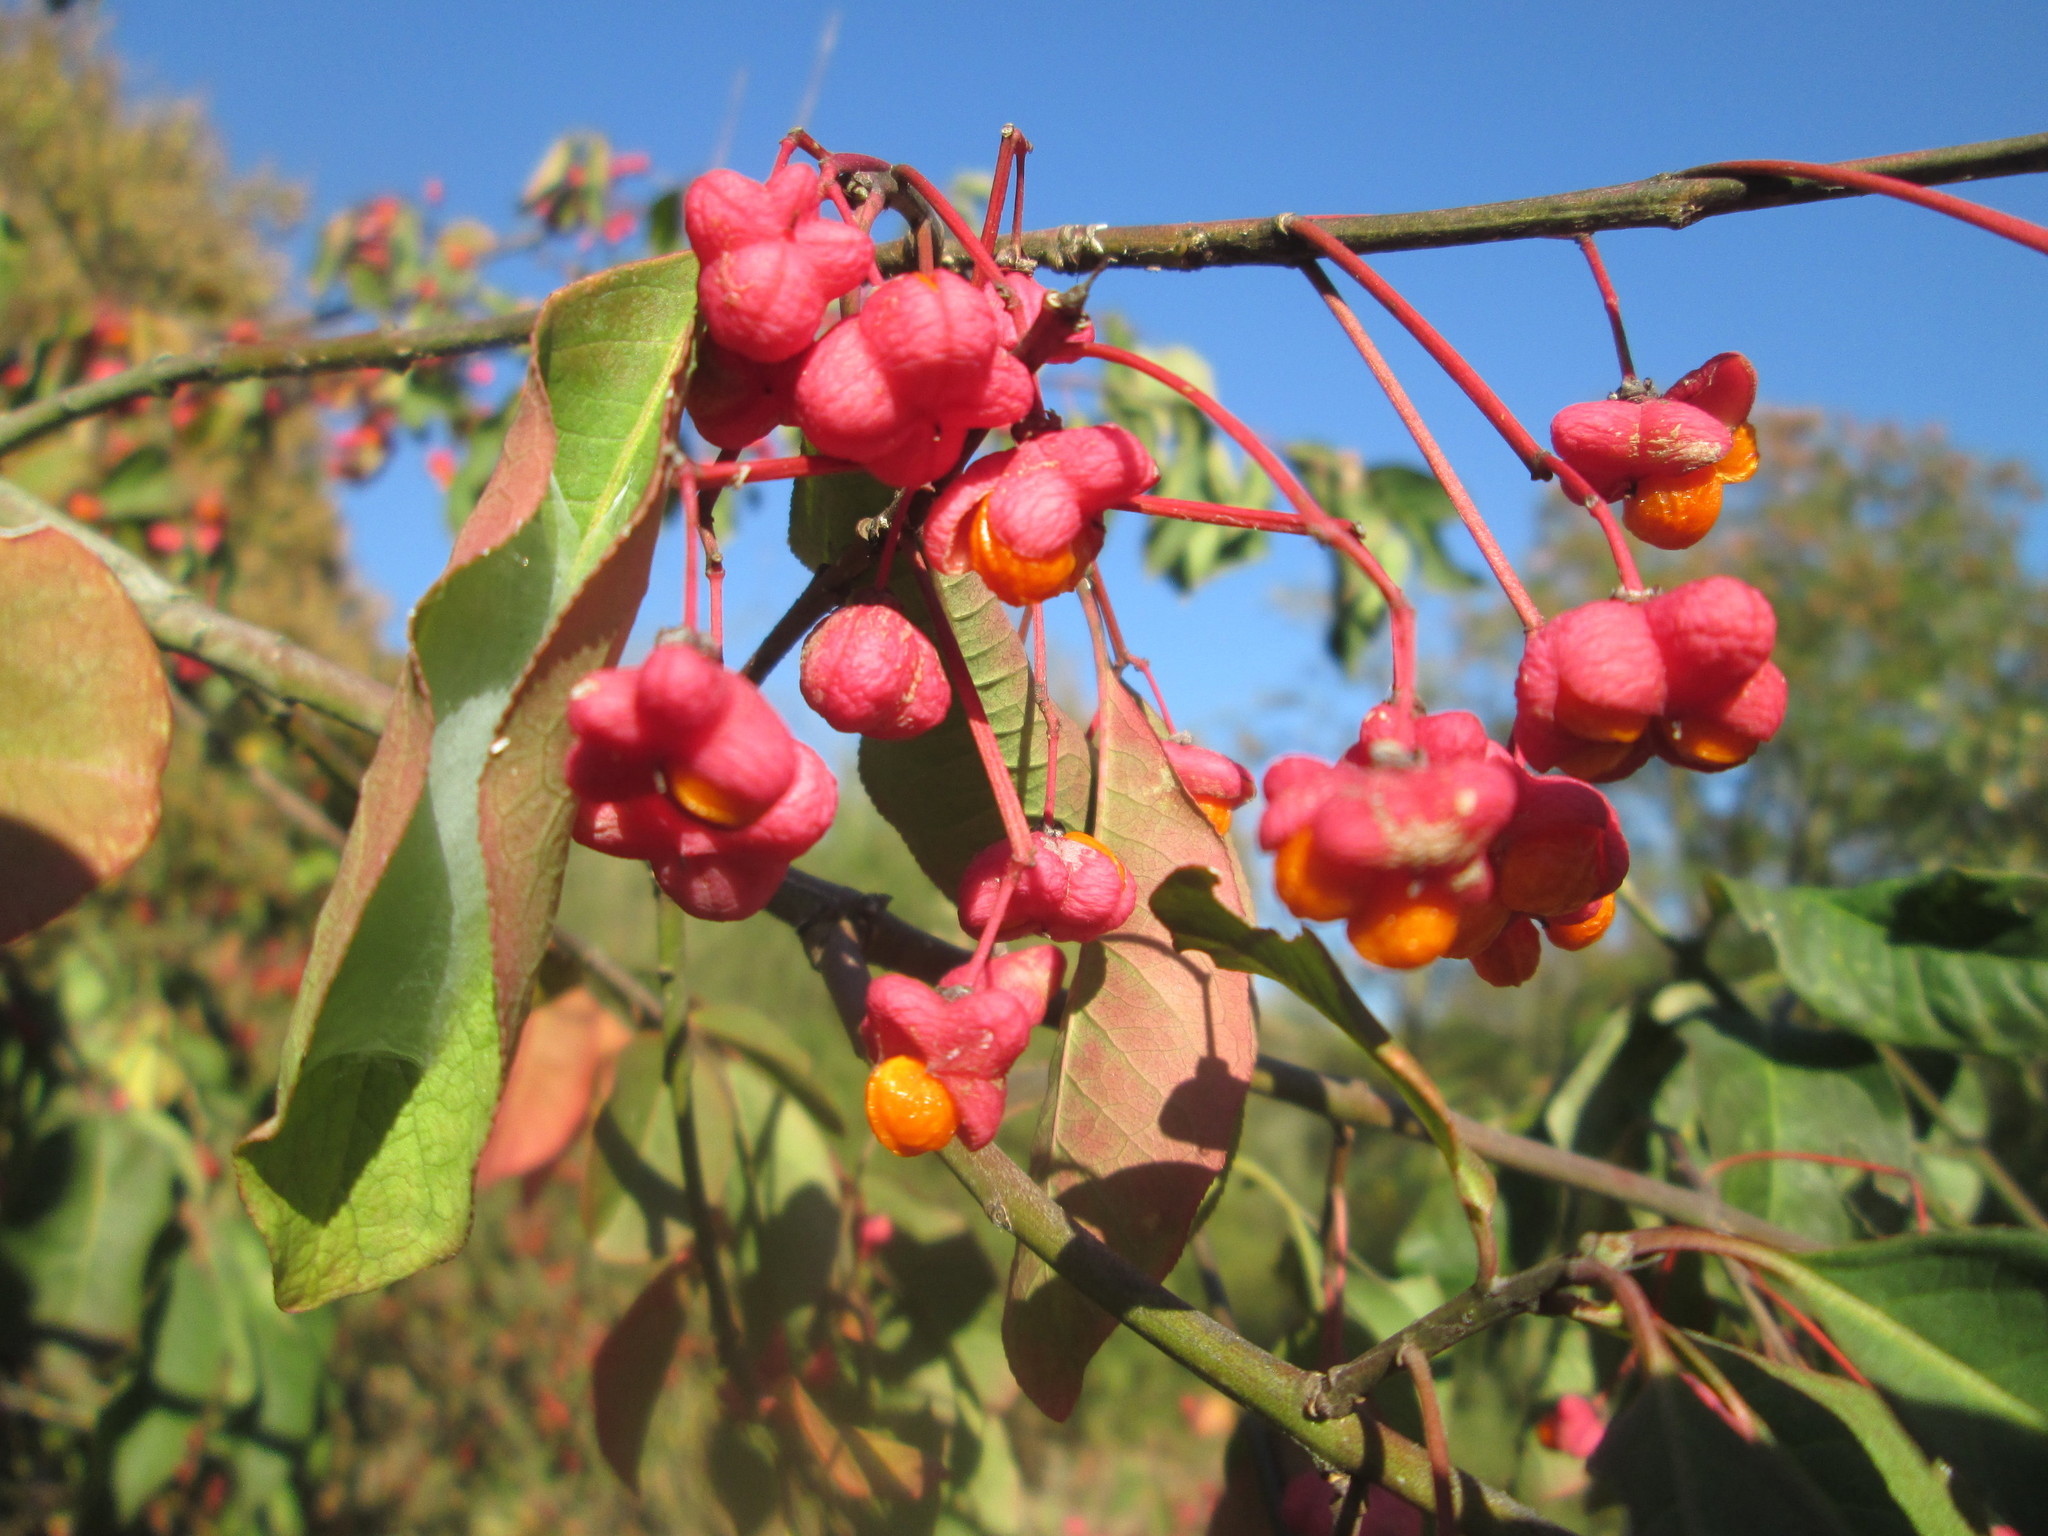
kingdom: Plantae
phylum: Tracheophyta
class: Magnoliopsida
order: Celastrales
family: Celastraceae
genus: Euonymus
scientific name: Euonymus europaeus
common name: Spindle
